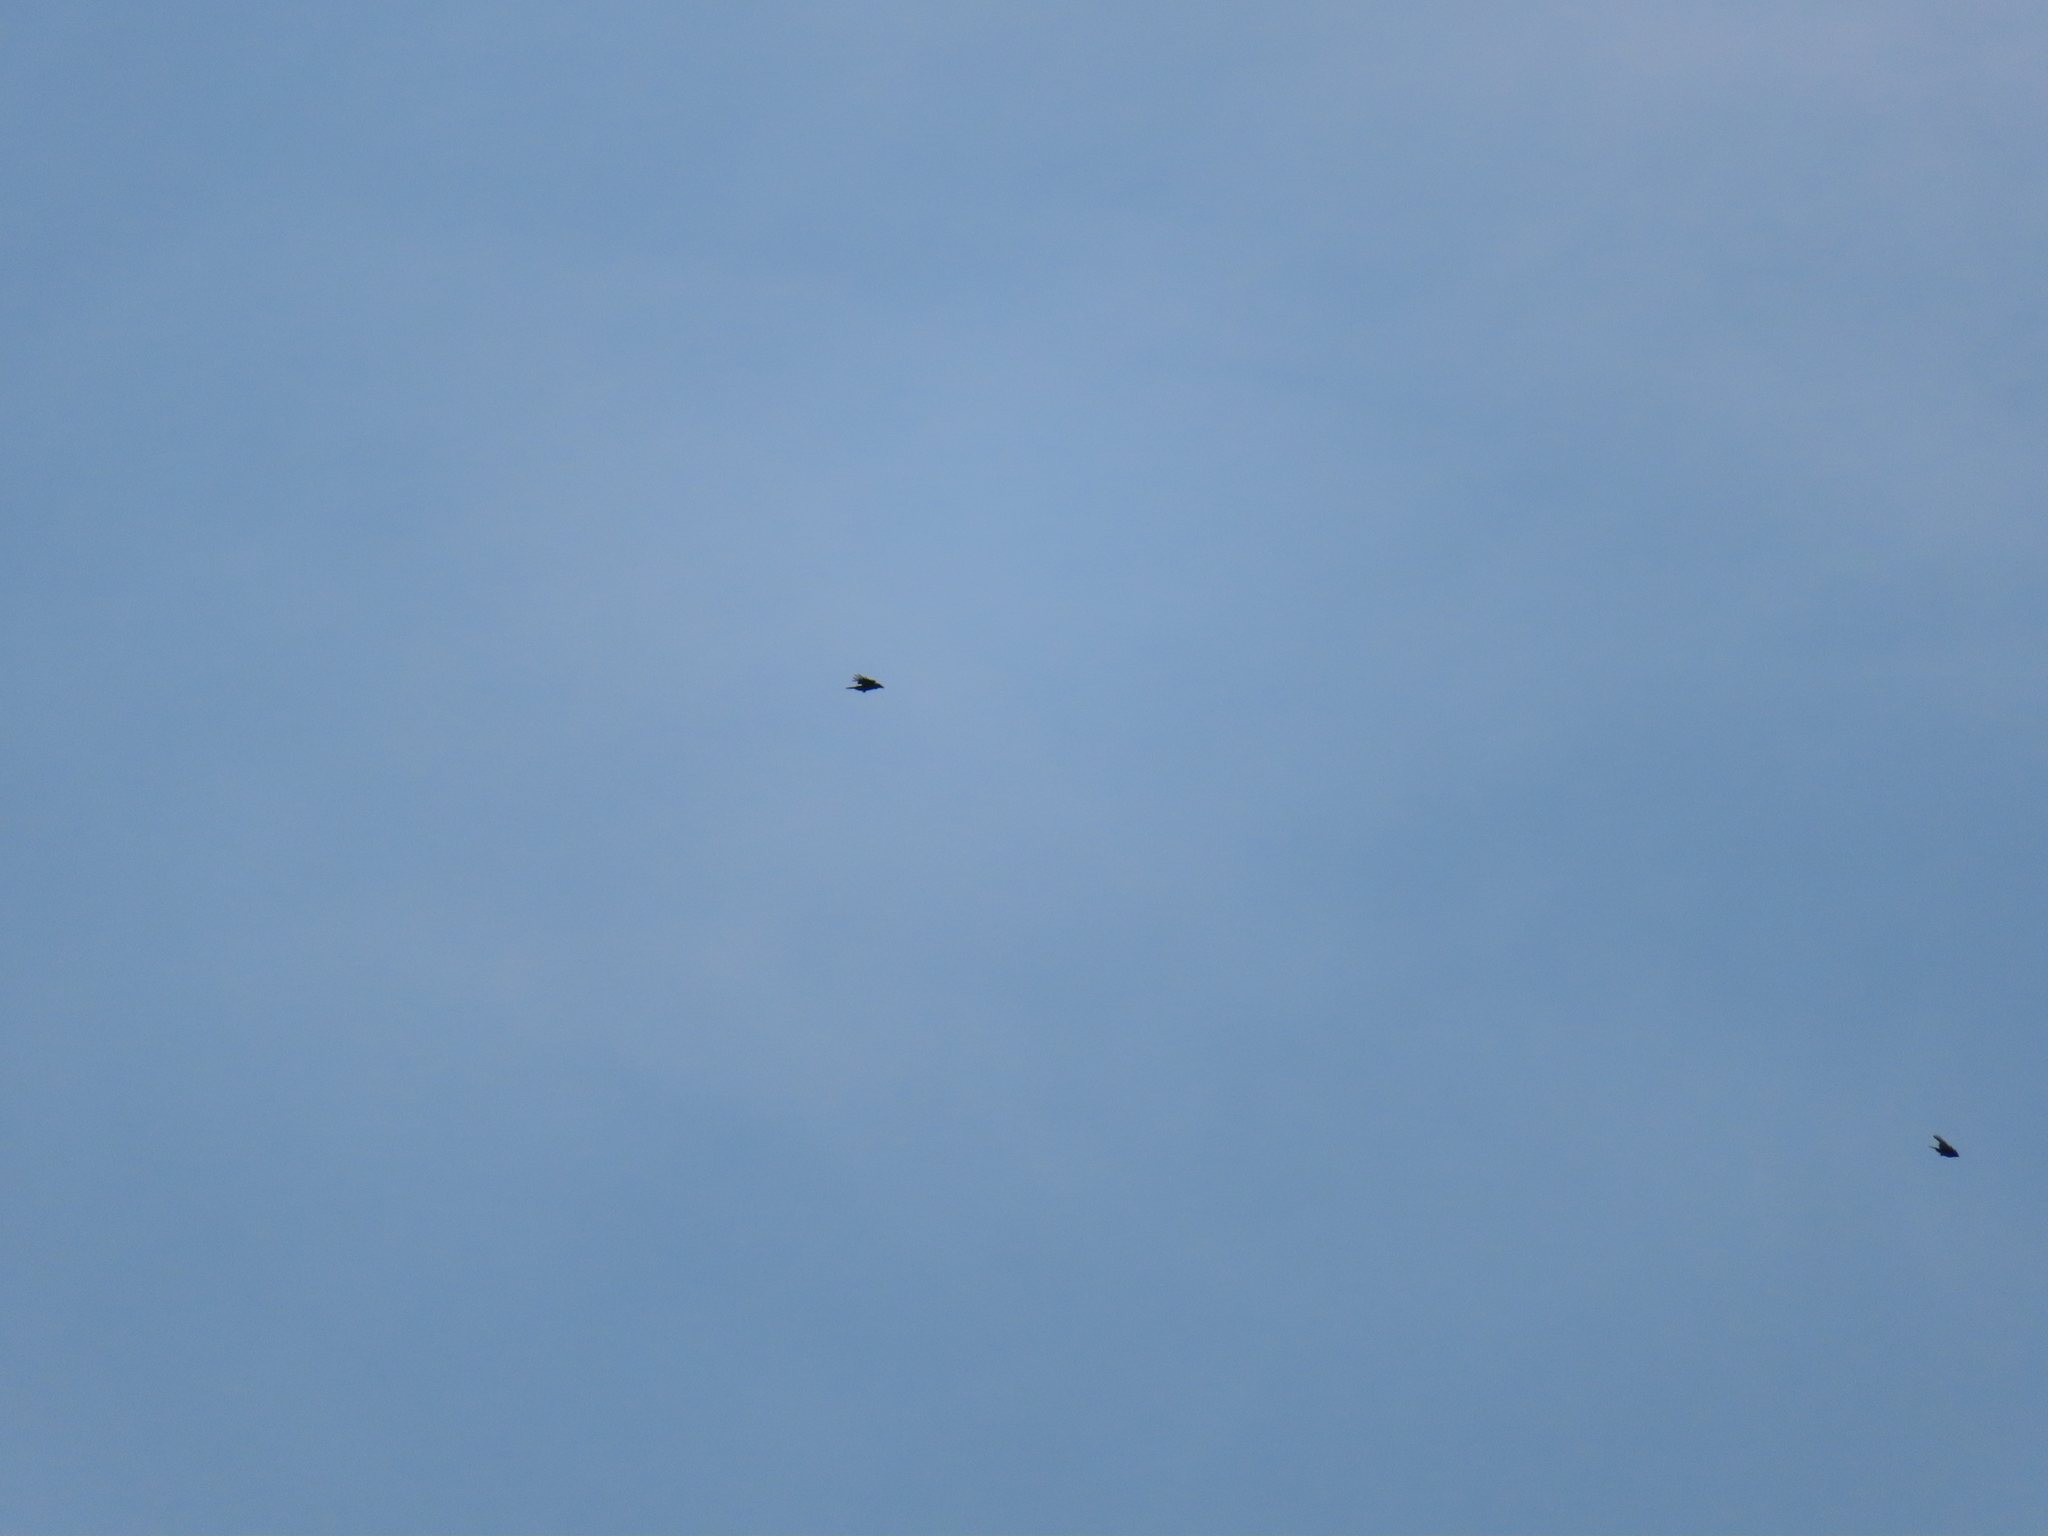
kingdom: Animalia
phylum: Chordata
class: Aves
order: Accipitriformes
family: Accipitridae
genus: Buteo
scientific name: Buteo jamaicensis
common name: Red-tailed hawk
